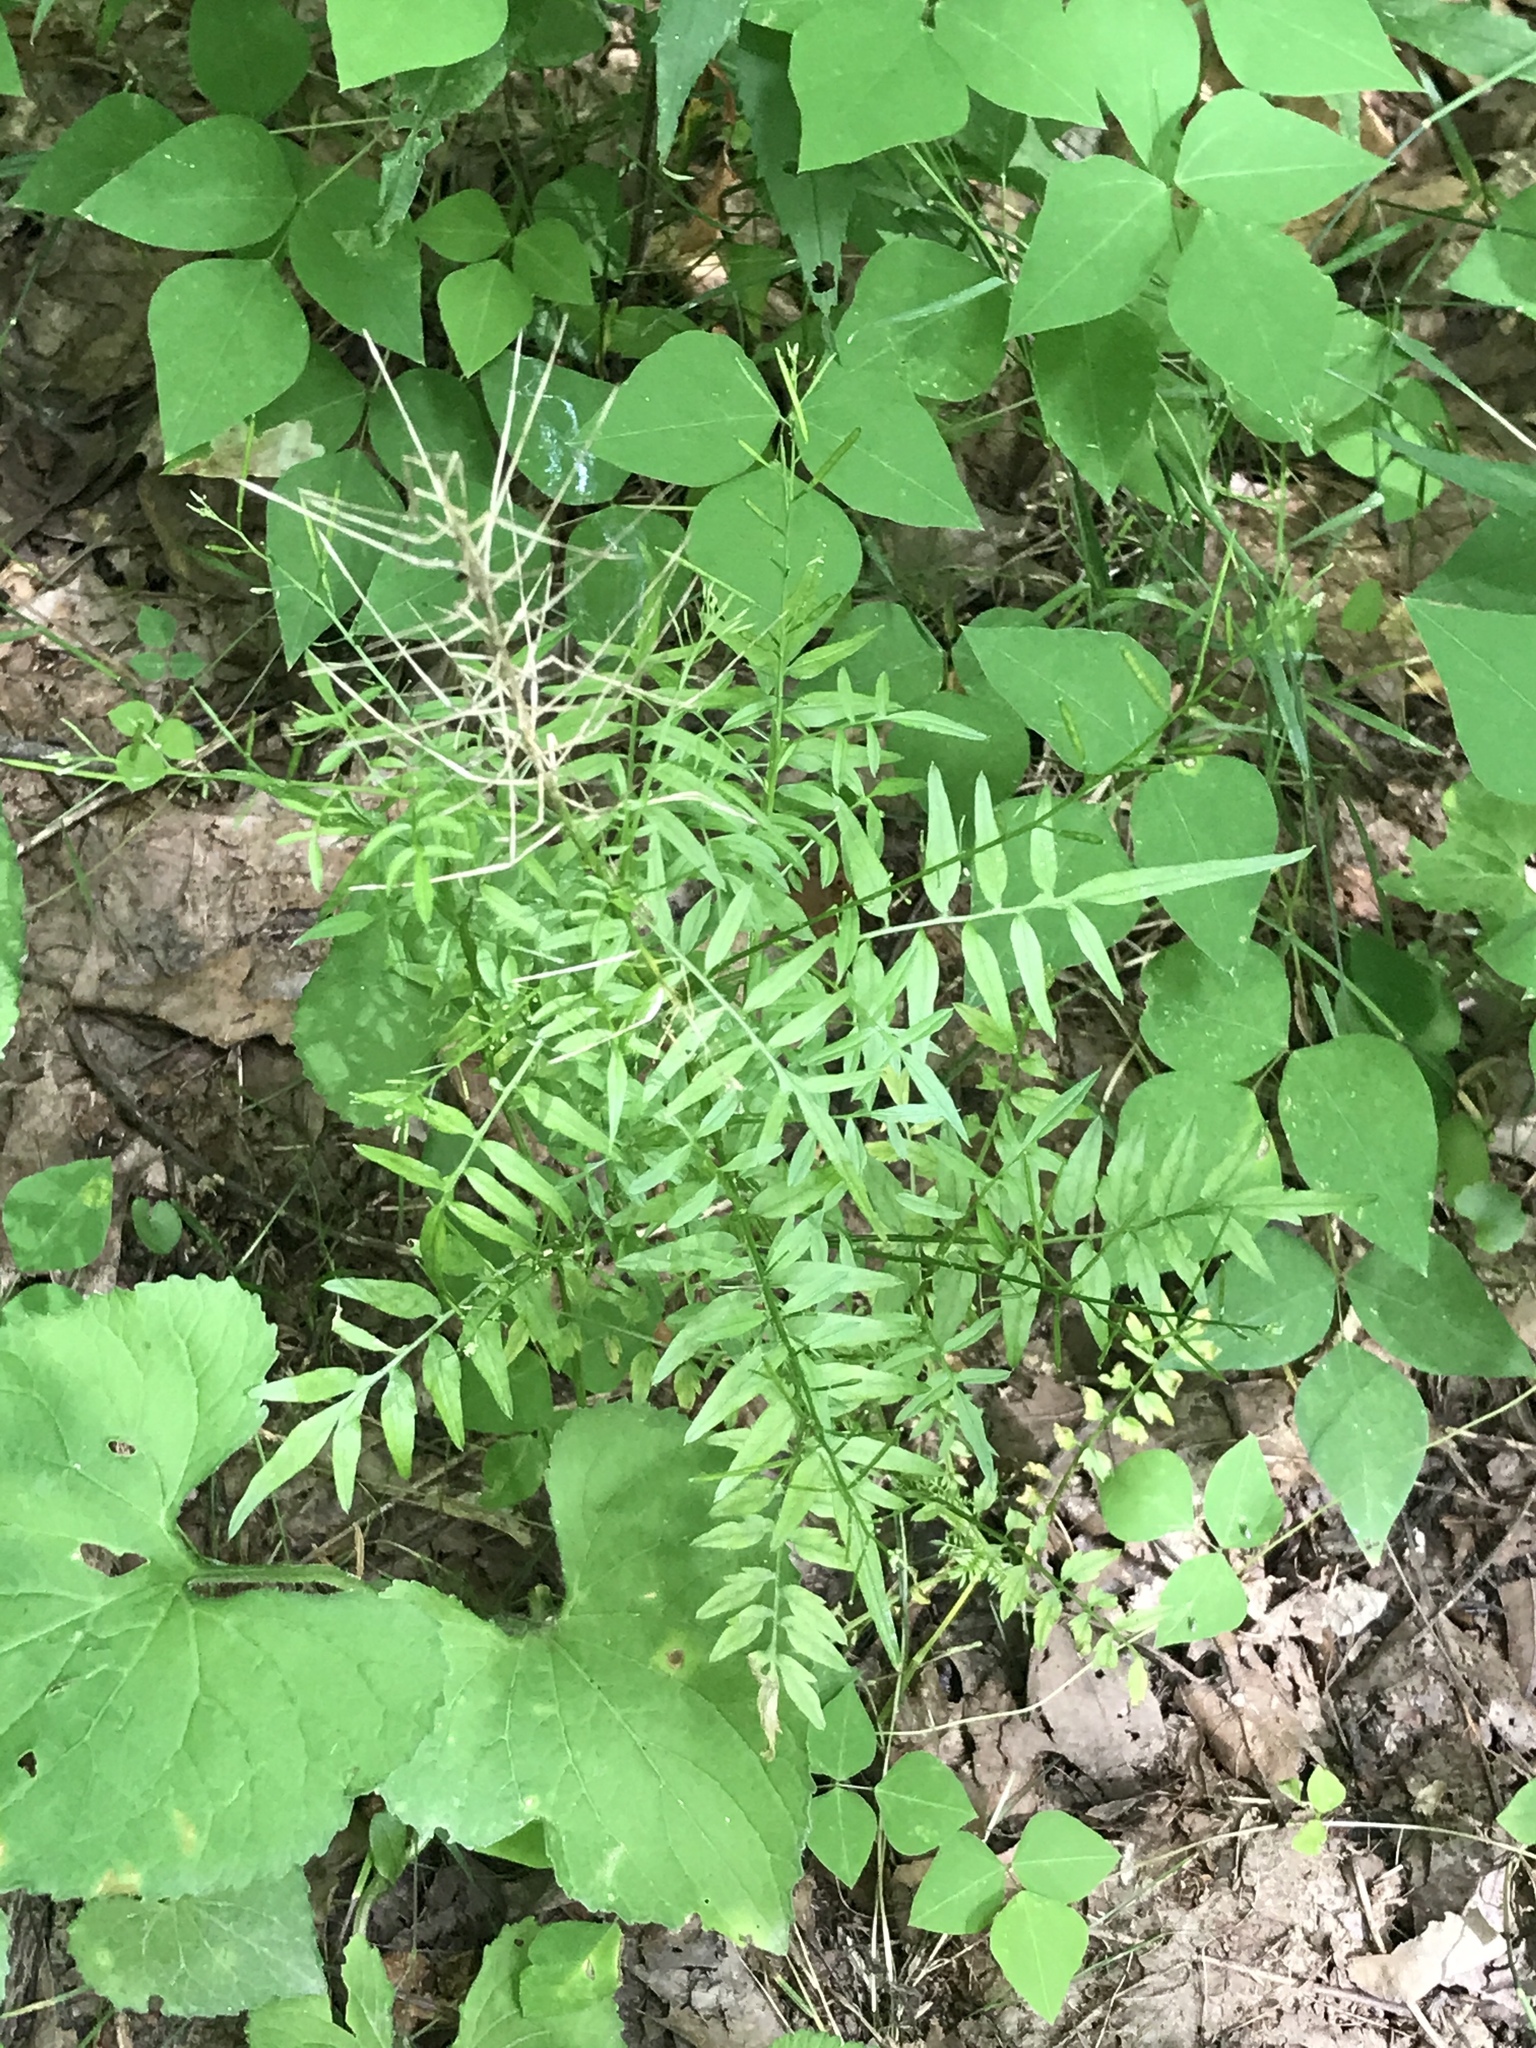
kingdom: Plantae
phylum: Tracheophyta
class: Magnoliopsida
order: Brassicales
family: Brassicaceae
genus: Cardamine
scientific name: Cardamine impatiens
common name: Narrow-leaved bitter-cress
